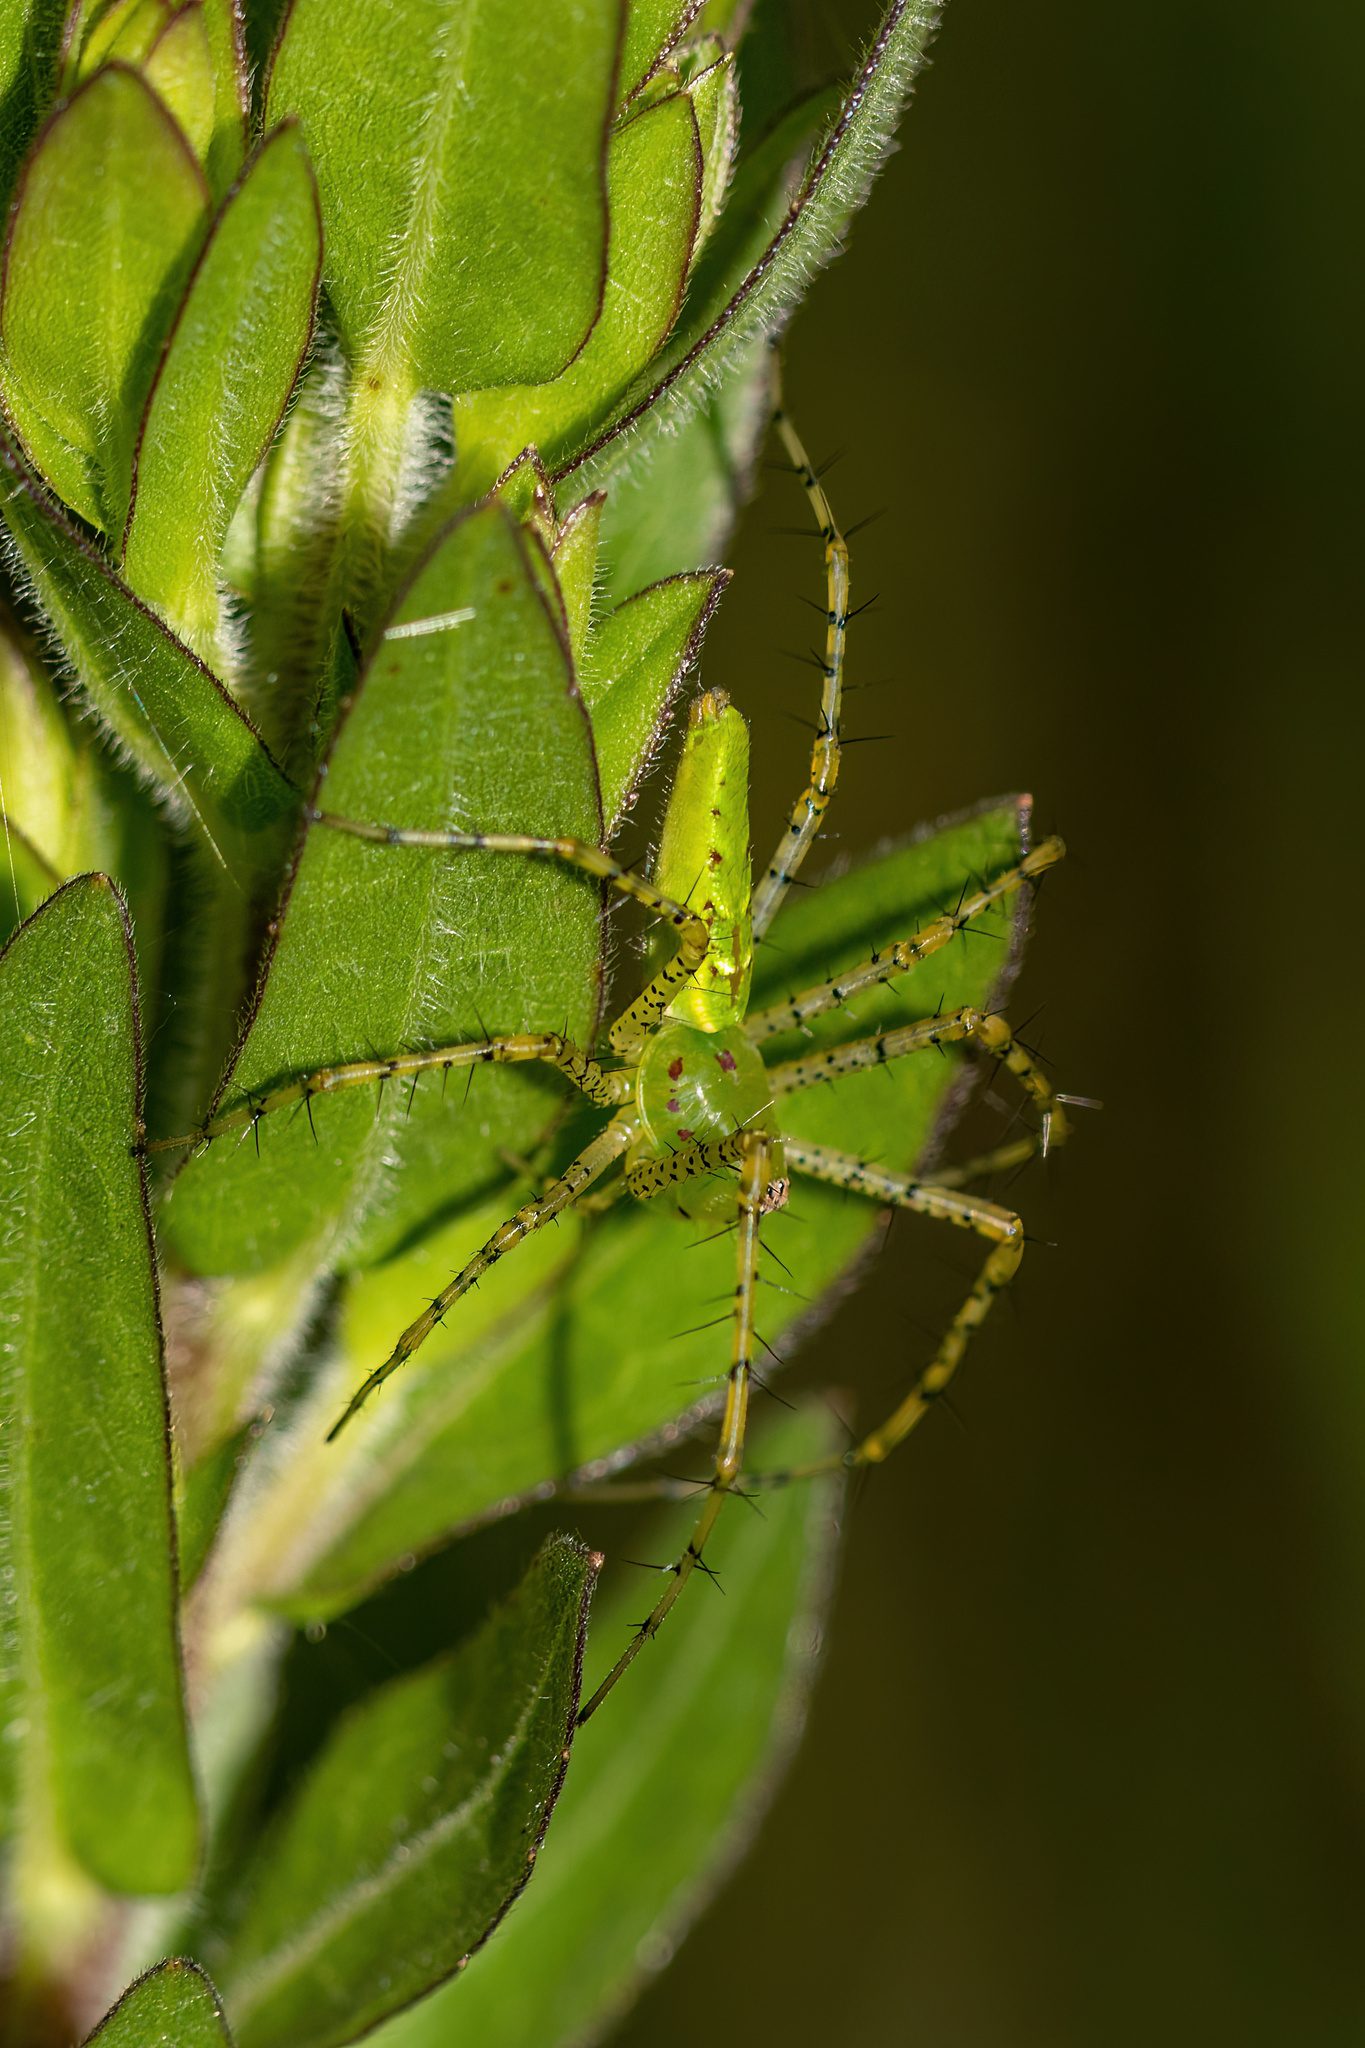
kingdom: Animalia
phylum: Arthropoda
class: Arachnida
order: Araneae
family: Oxyopidae
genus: Peucetia
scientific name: Peucetia viridans
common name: Lynx spiders
